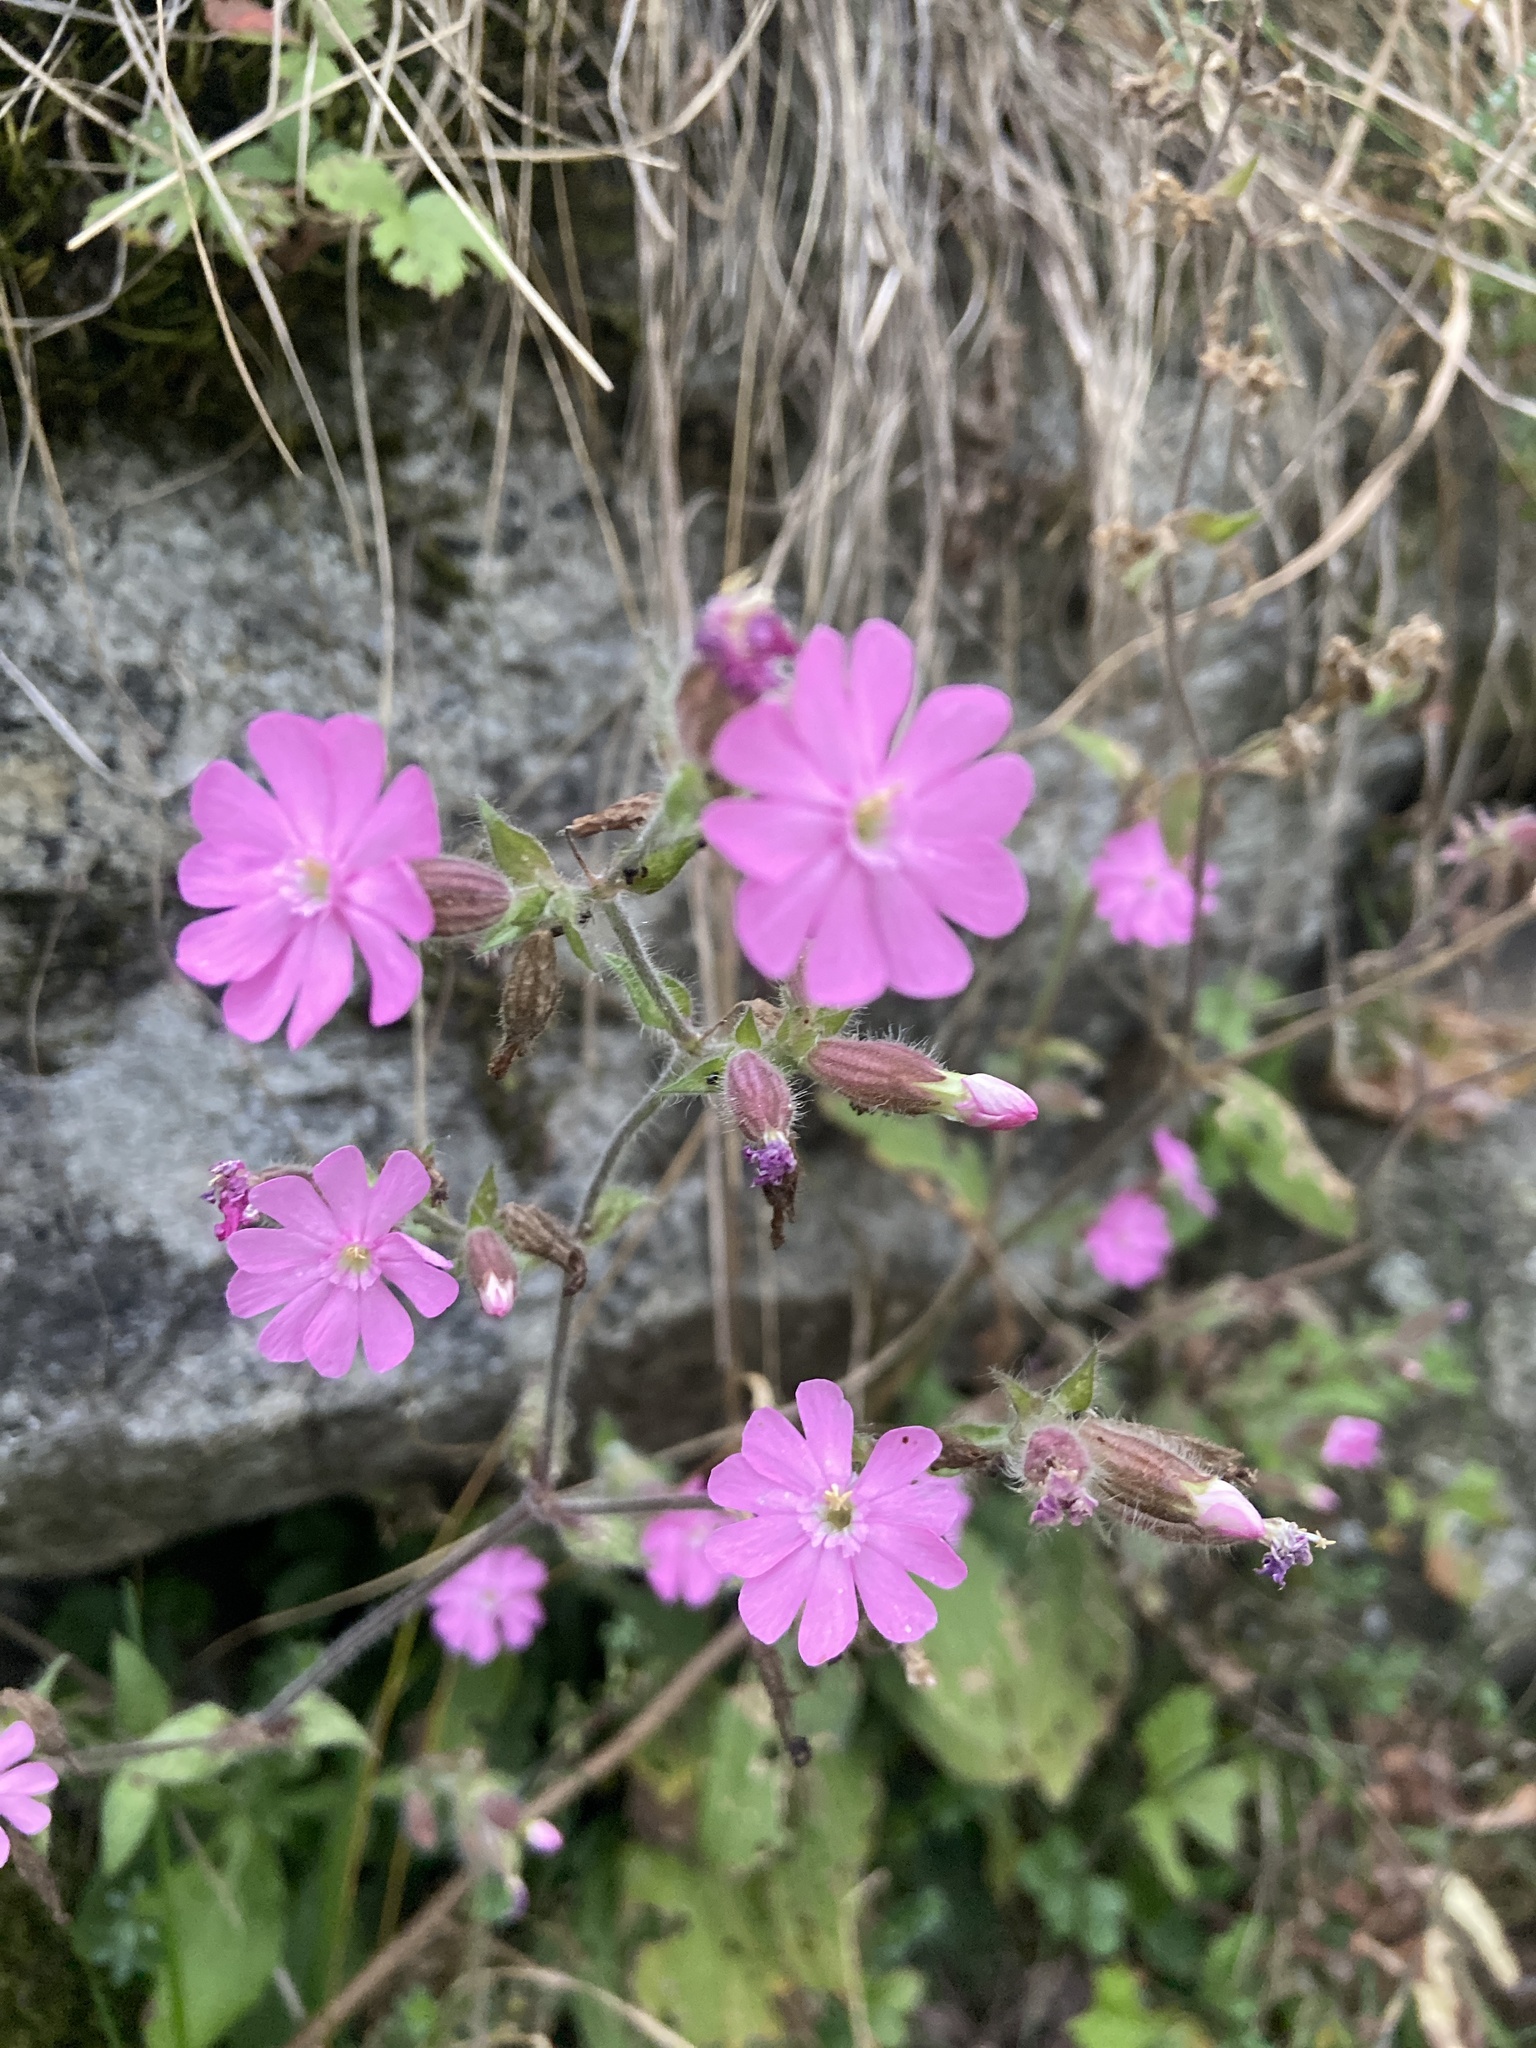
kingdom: Plantae
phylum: Tracheophyta
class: Magnoliopsida
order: Caryophyllales
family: Caryophyllaceae
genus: Silene
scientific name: Silene dioica
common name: Red campion
